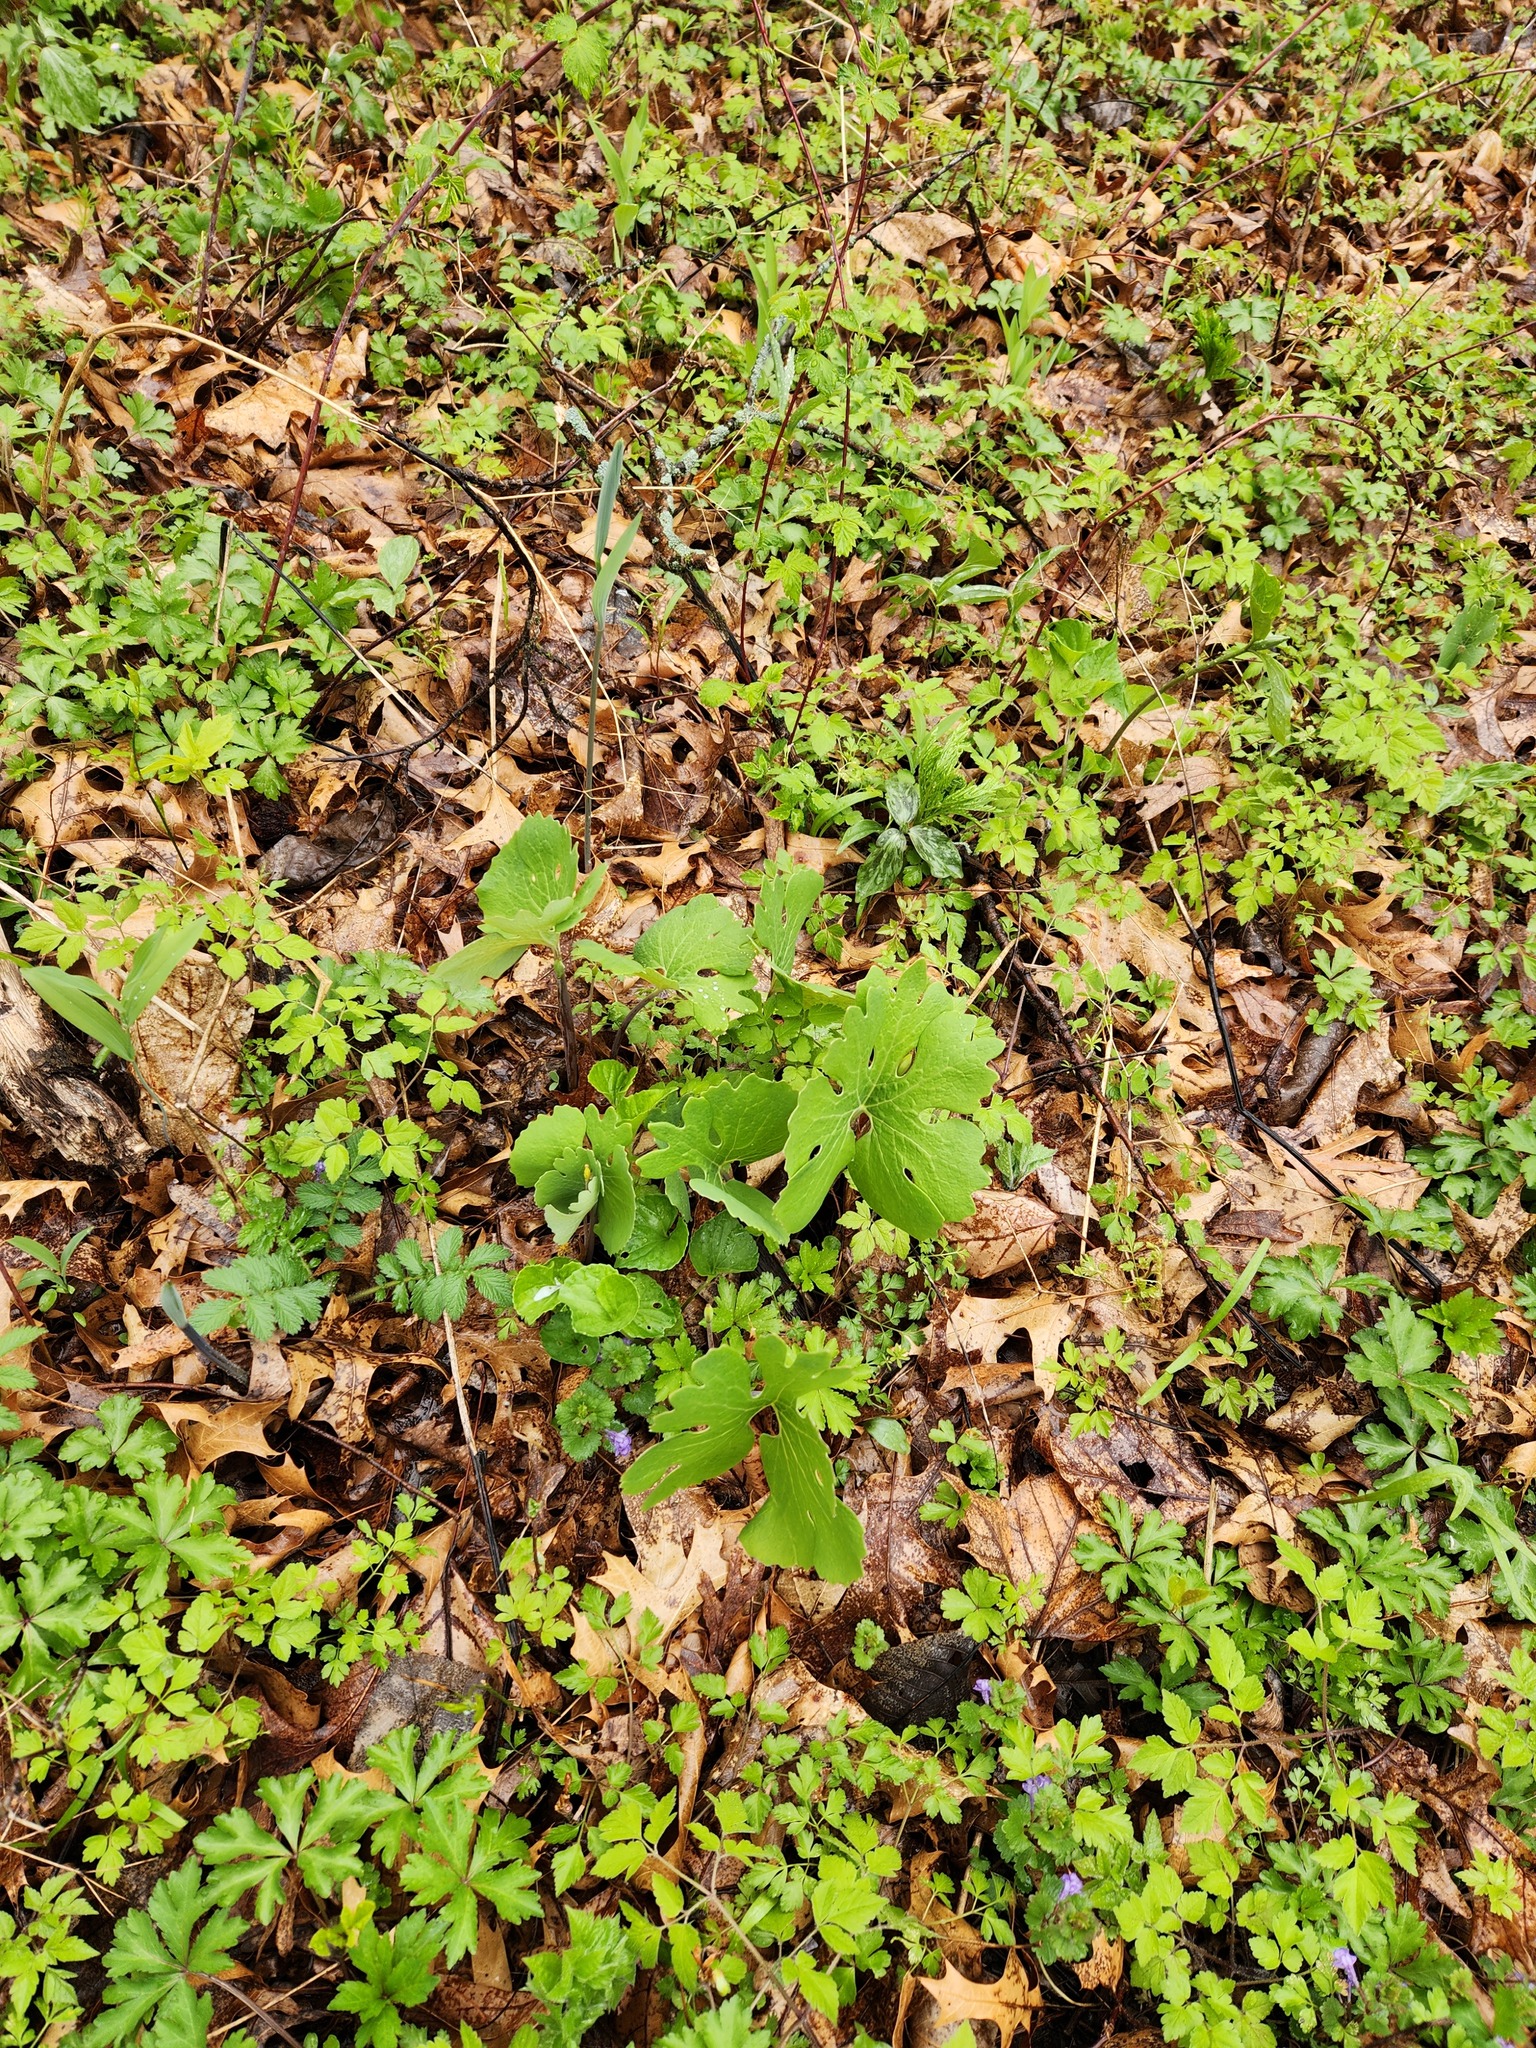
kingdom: Plantae
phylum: Tracheophyta
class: Magnoliopsida
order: Ranunculales
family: Papaveraceae
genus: Sanguinaria
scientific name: Sanguinaria canadensis
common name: Bloodroot
